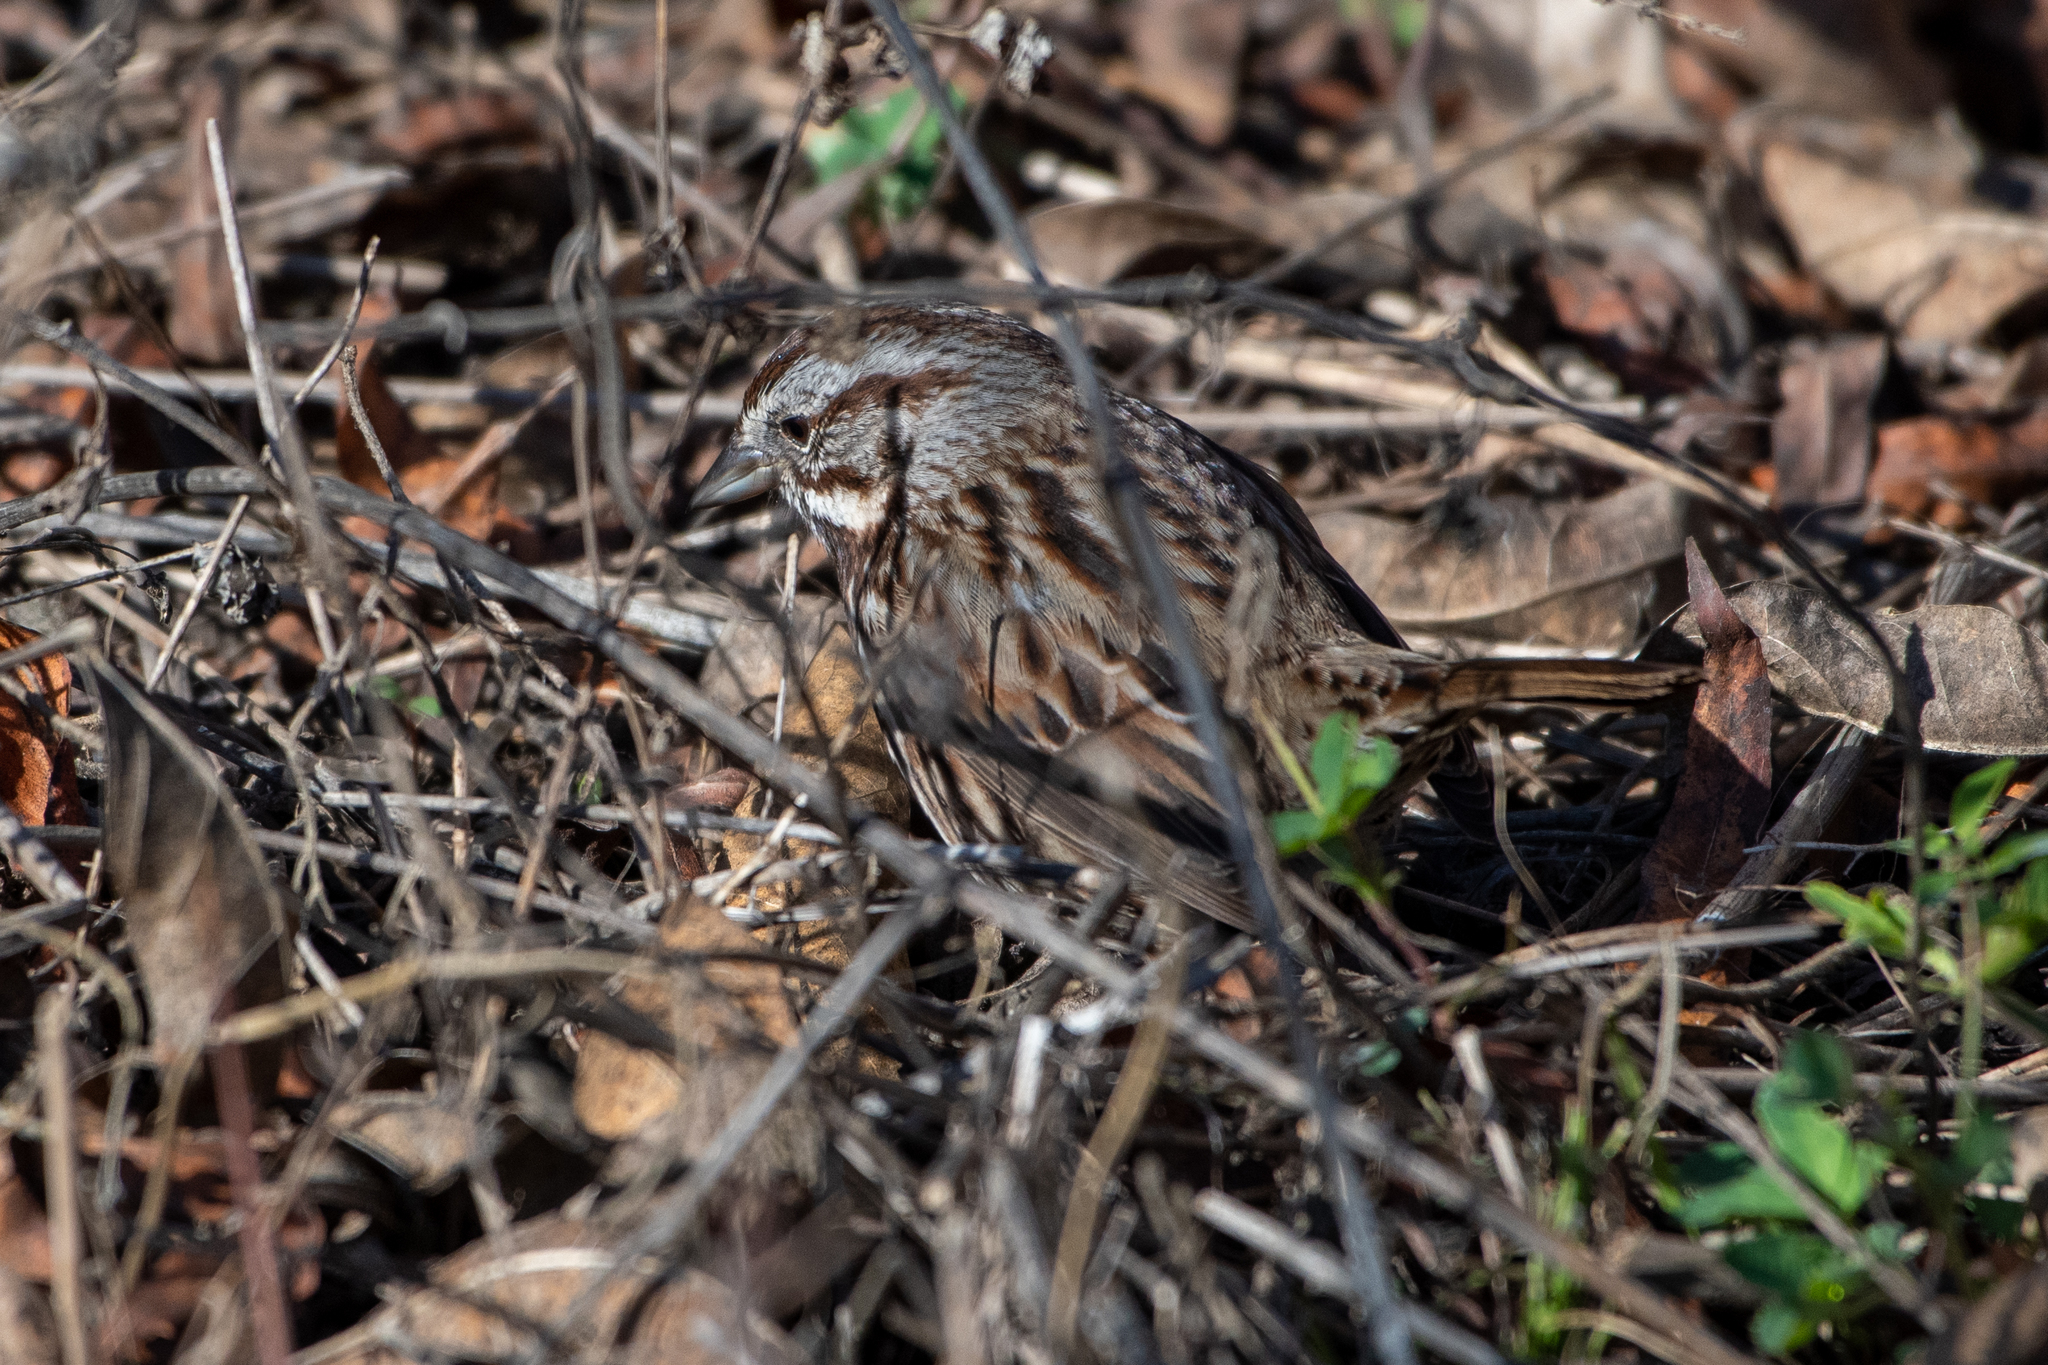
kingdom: Animalia
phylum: Chordata
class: Aves
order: Passeriformes
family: Passerellidae
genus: Melospiza
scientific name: Melospiza melodia
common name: Song sparrow
